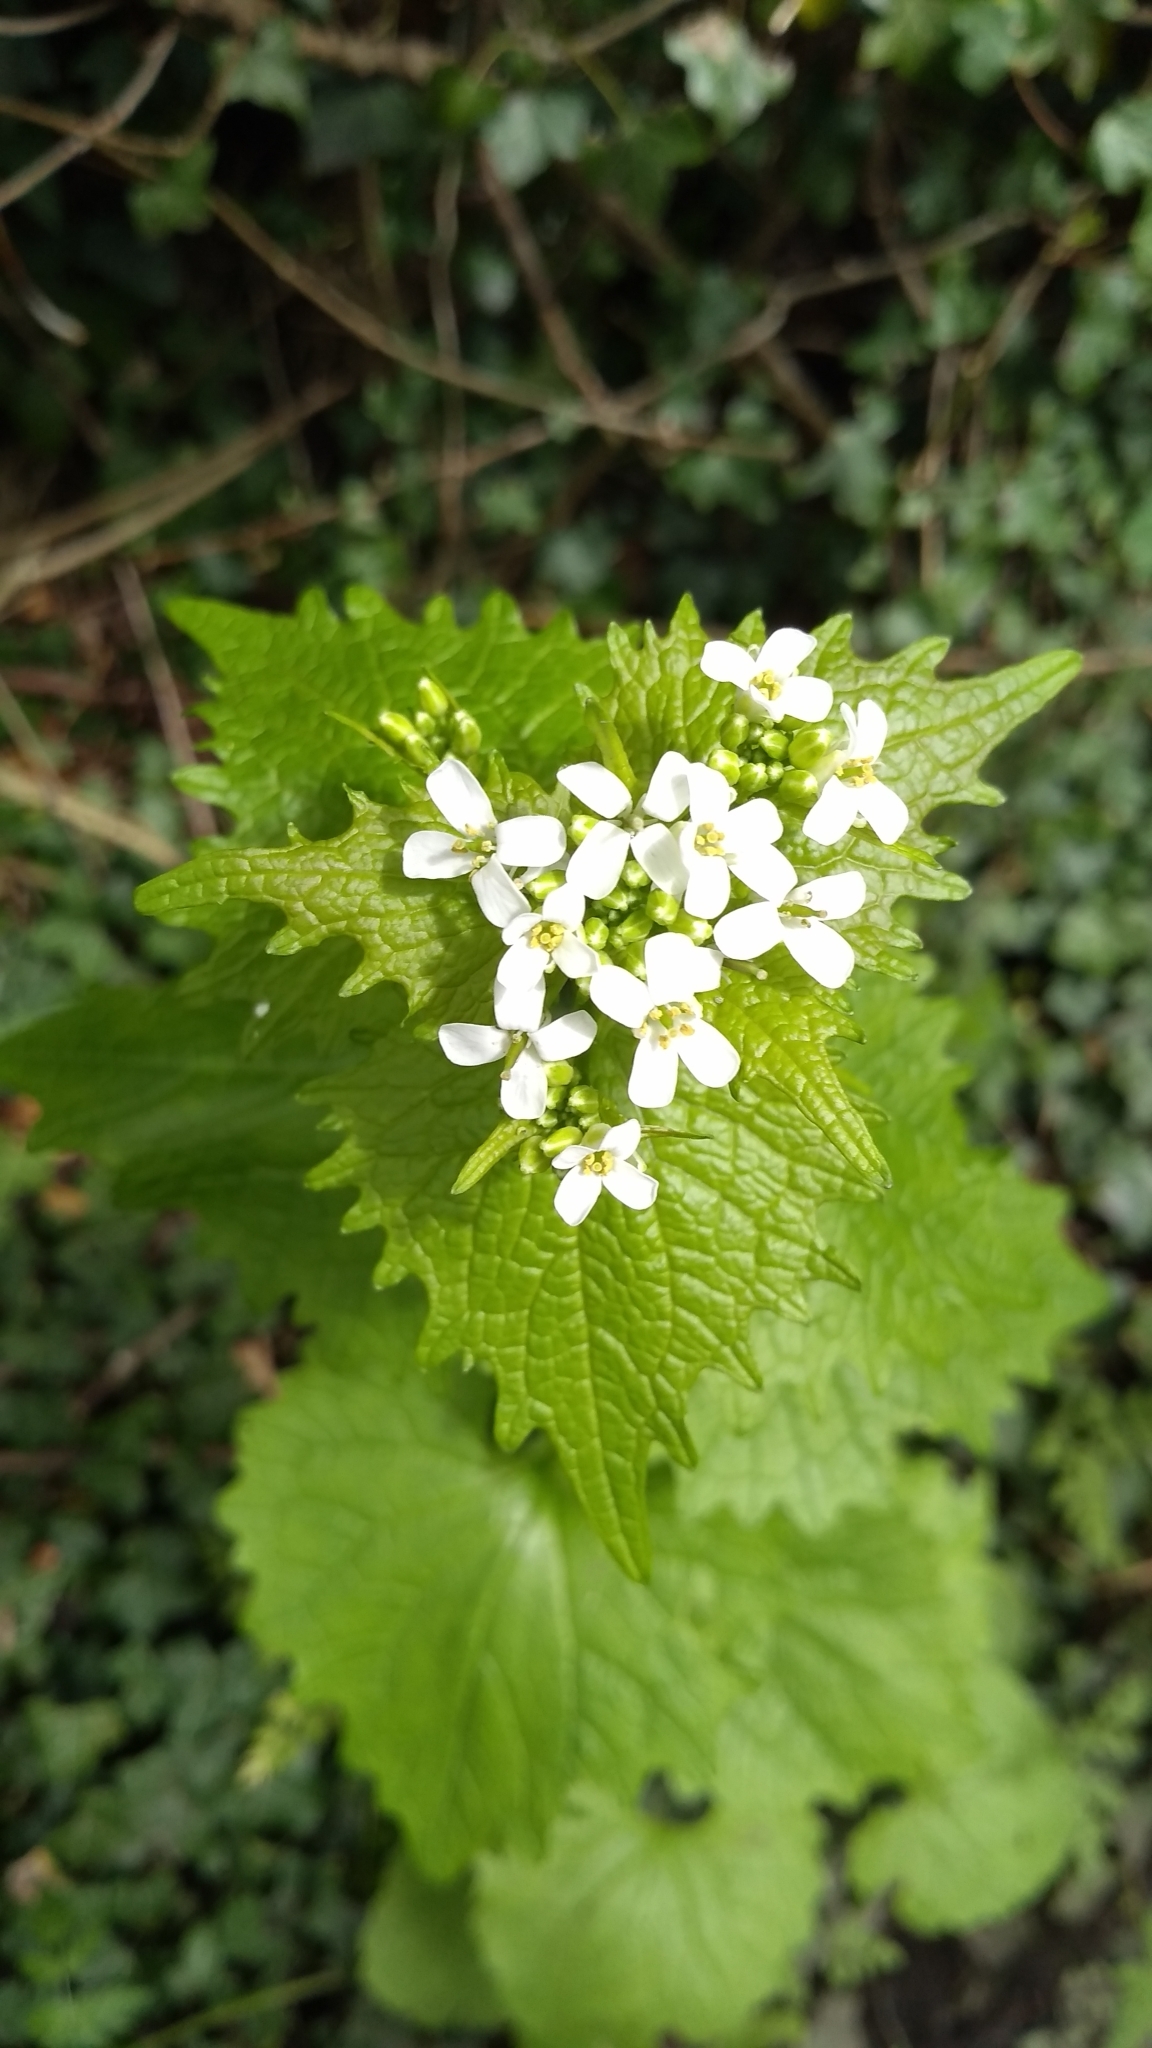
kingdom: Plantae
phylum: Tracheophyta
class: Magnoliopsida
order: Brassicales
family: Brassicaceae
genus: Alliaria
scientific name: Alliaria petiolata
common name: Garlic mustard
